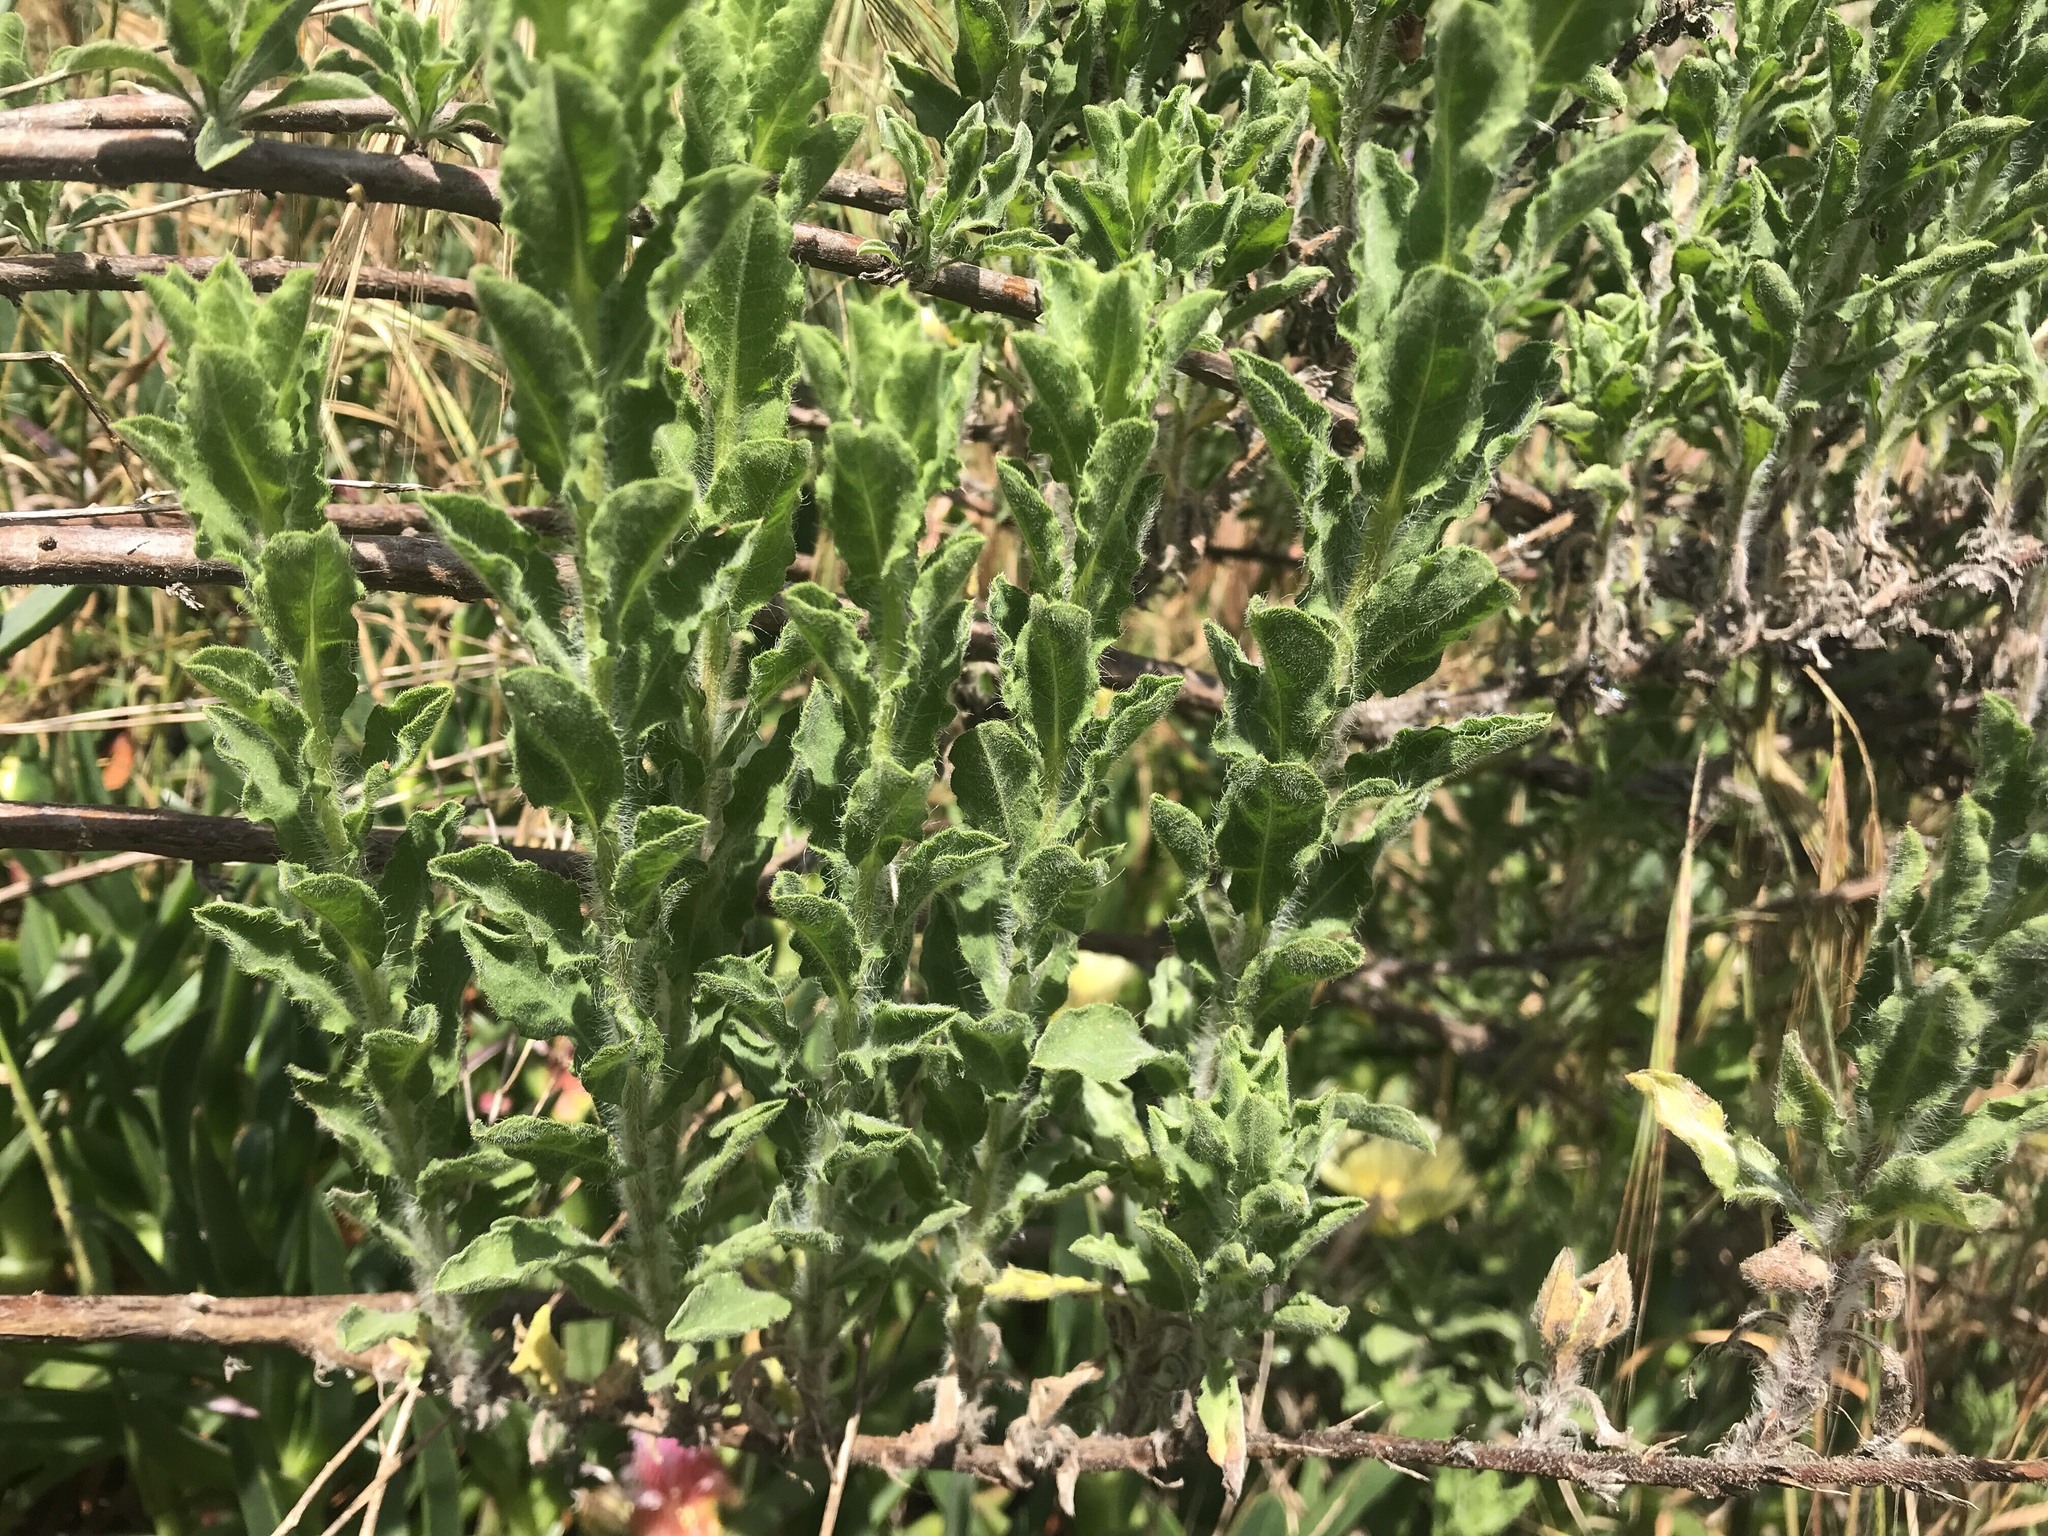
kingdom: Plantae
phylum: Tracheophyta
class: Magnoliopsida
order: Asterales
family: Asteraceae
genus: Heterotheca
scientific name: Heterotheca sessiliflora
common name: Sessile-flower golden-aster
